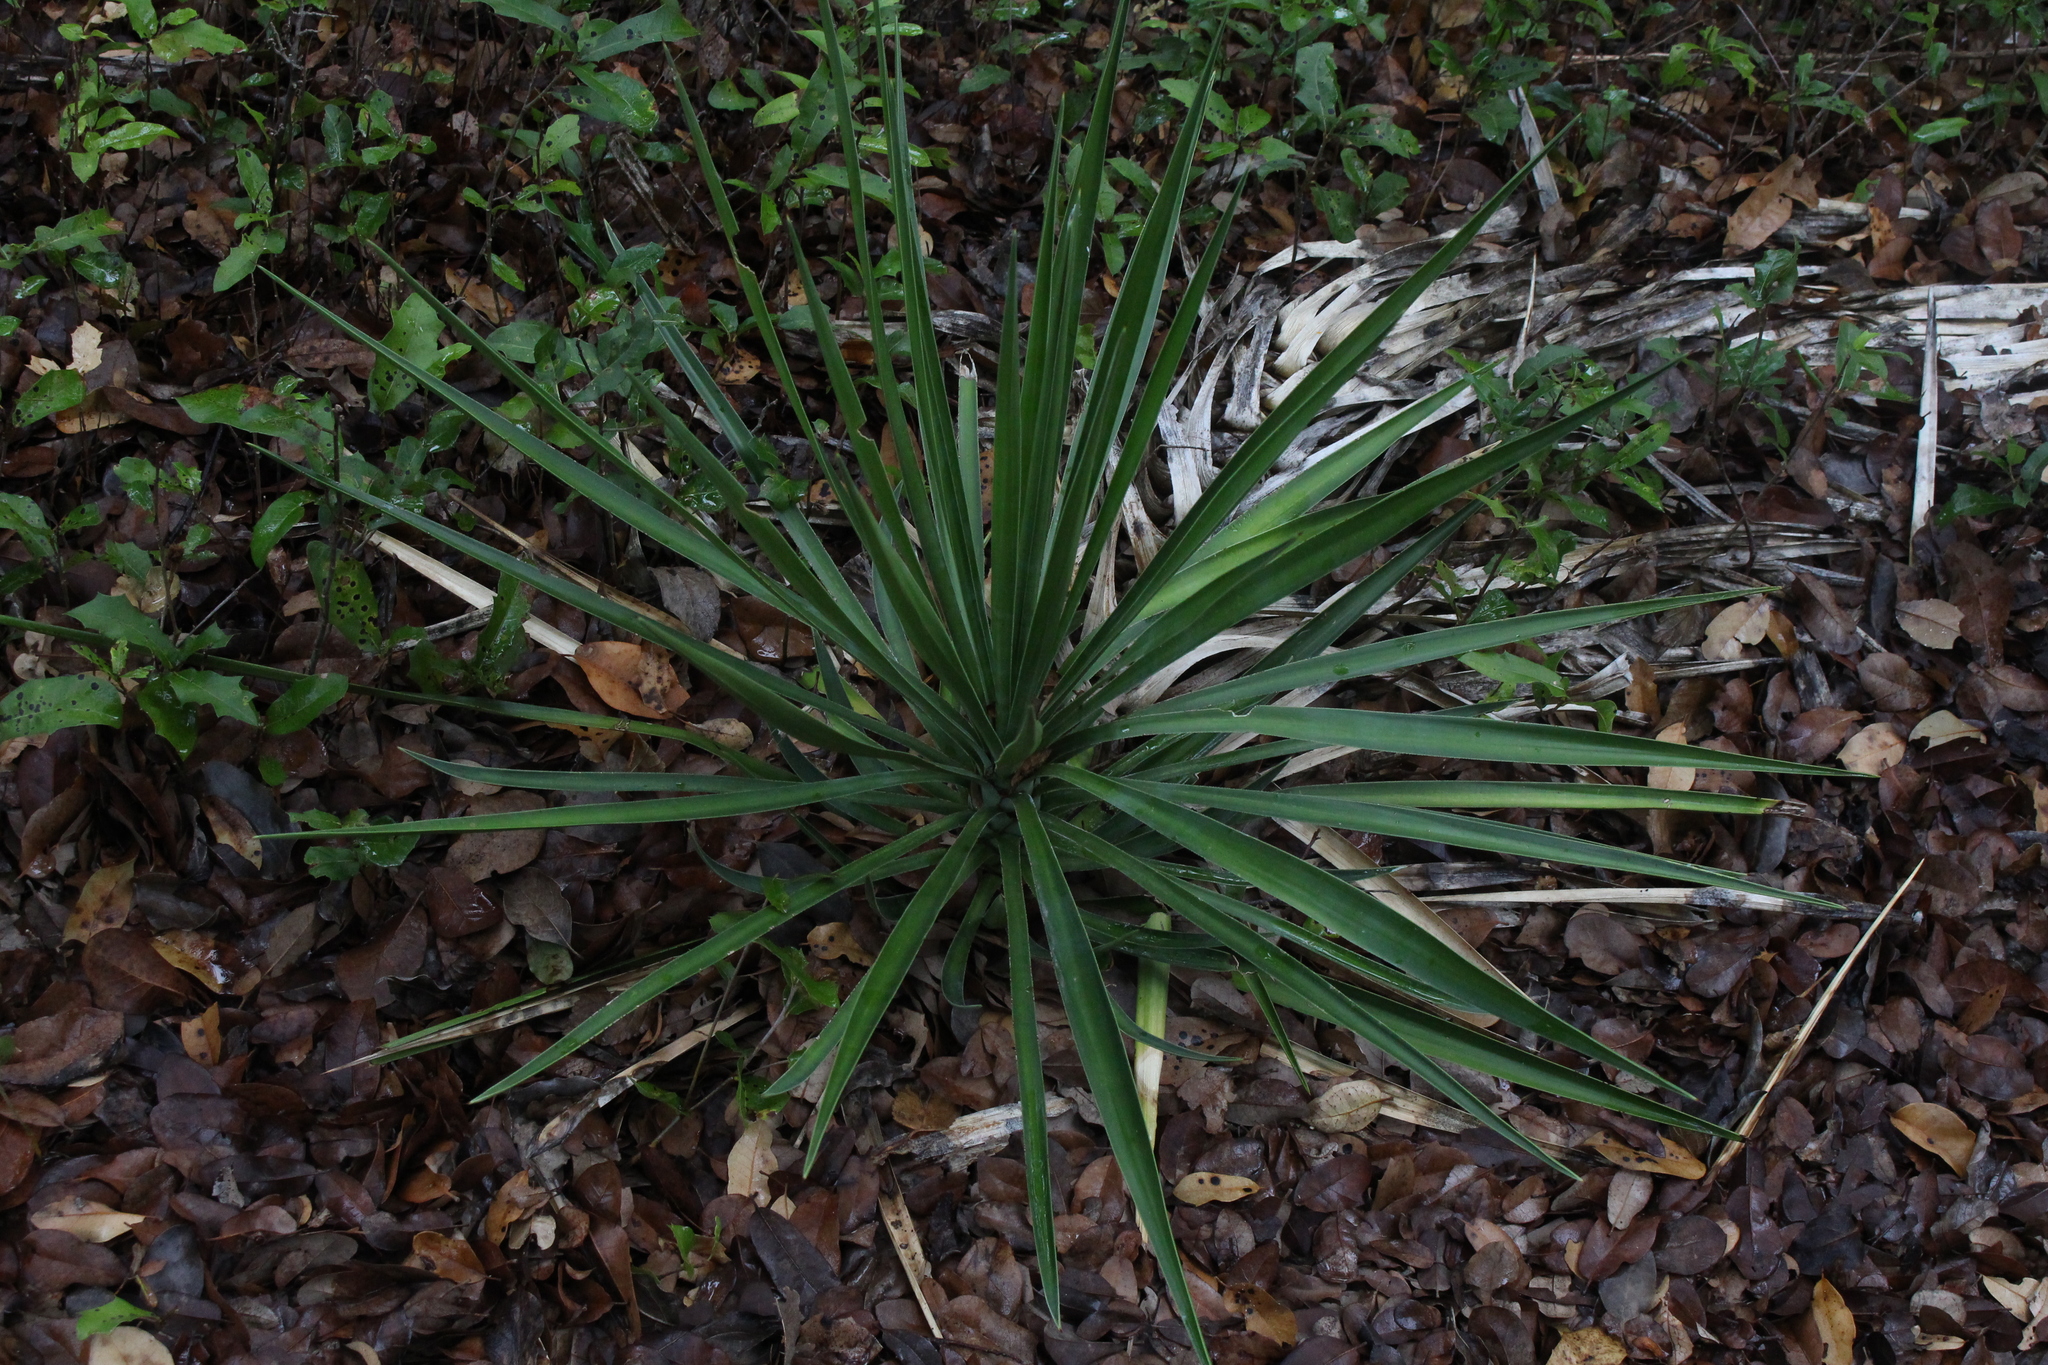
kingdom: Plantae
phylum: Tracheophyta
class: Liliopsida
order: Asparagales
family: Asparagaceae
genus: Yucca
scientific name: Yucca aloifolia
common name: Aloe yucca
